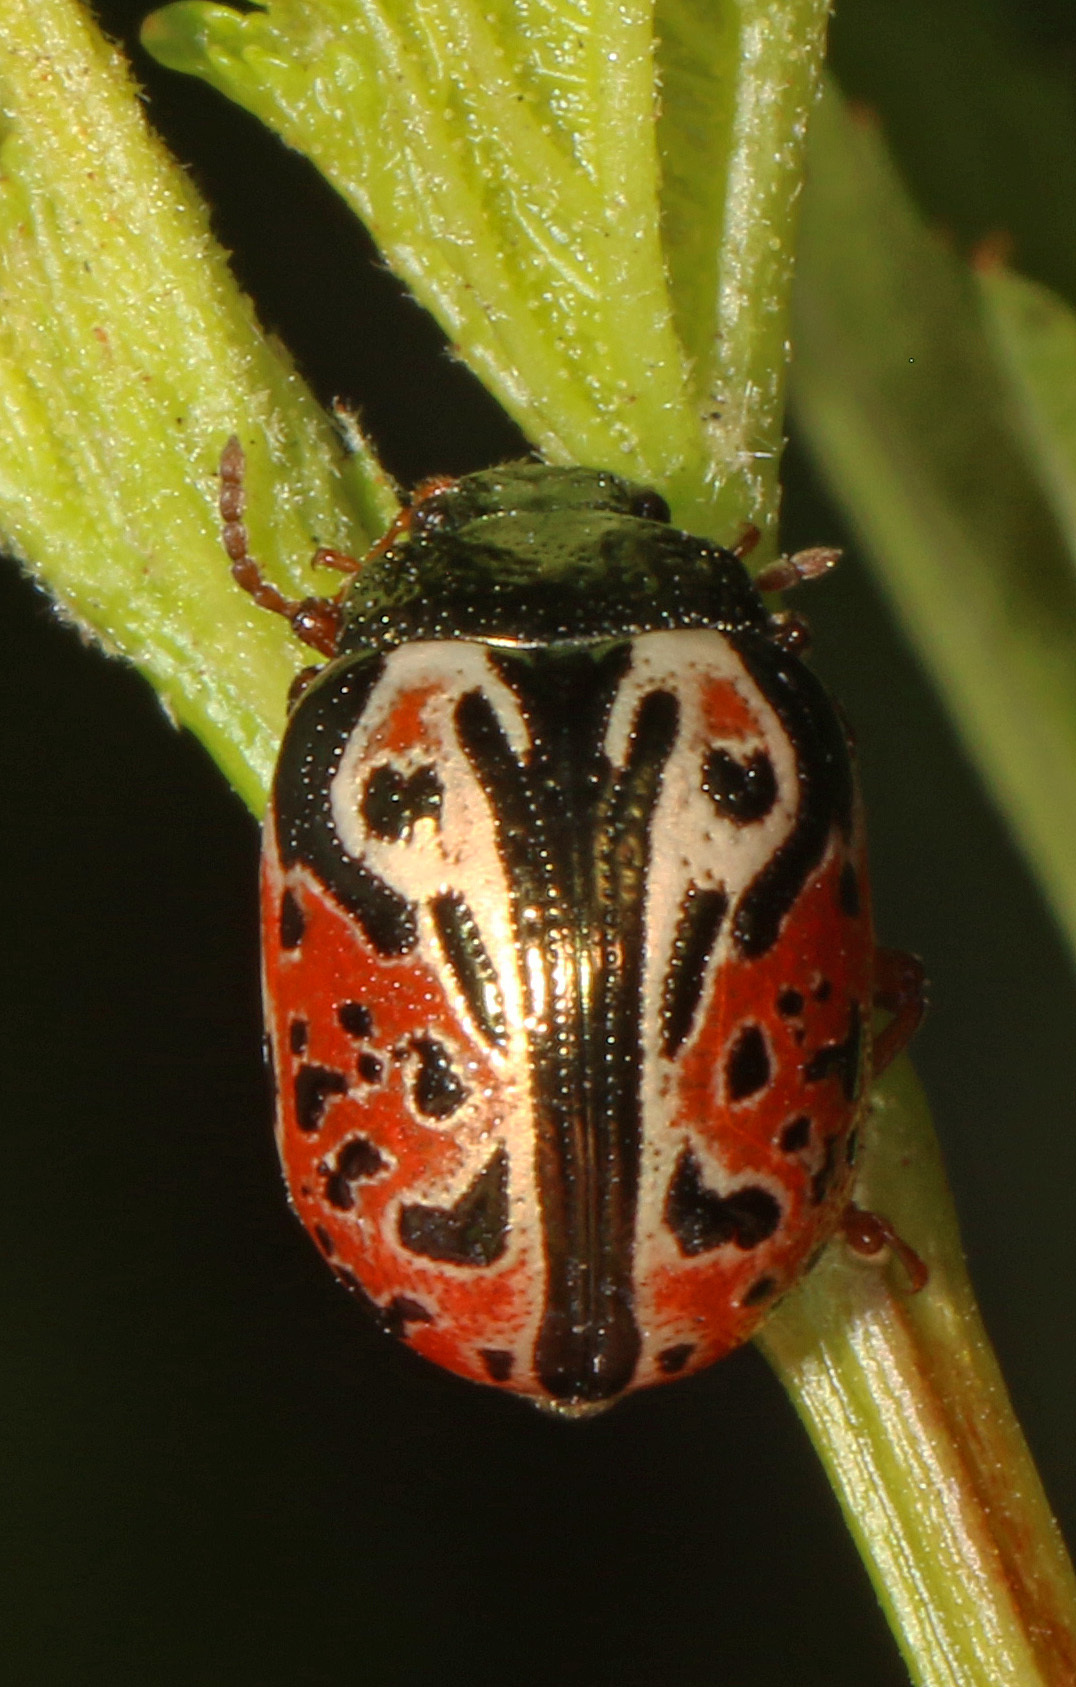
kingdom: Animalia
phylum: Arthropoda
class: Insecta
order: Coleoptera
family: Chrysomelidae
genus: Calligrapha
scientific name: Calligrapha spiraeae
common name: Ninebark calligrapha beetle
